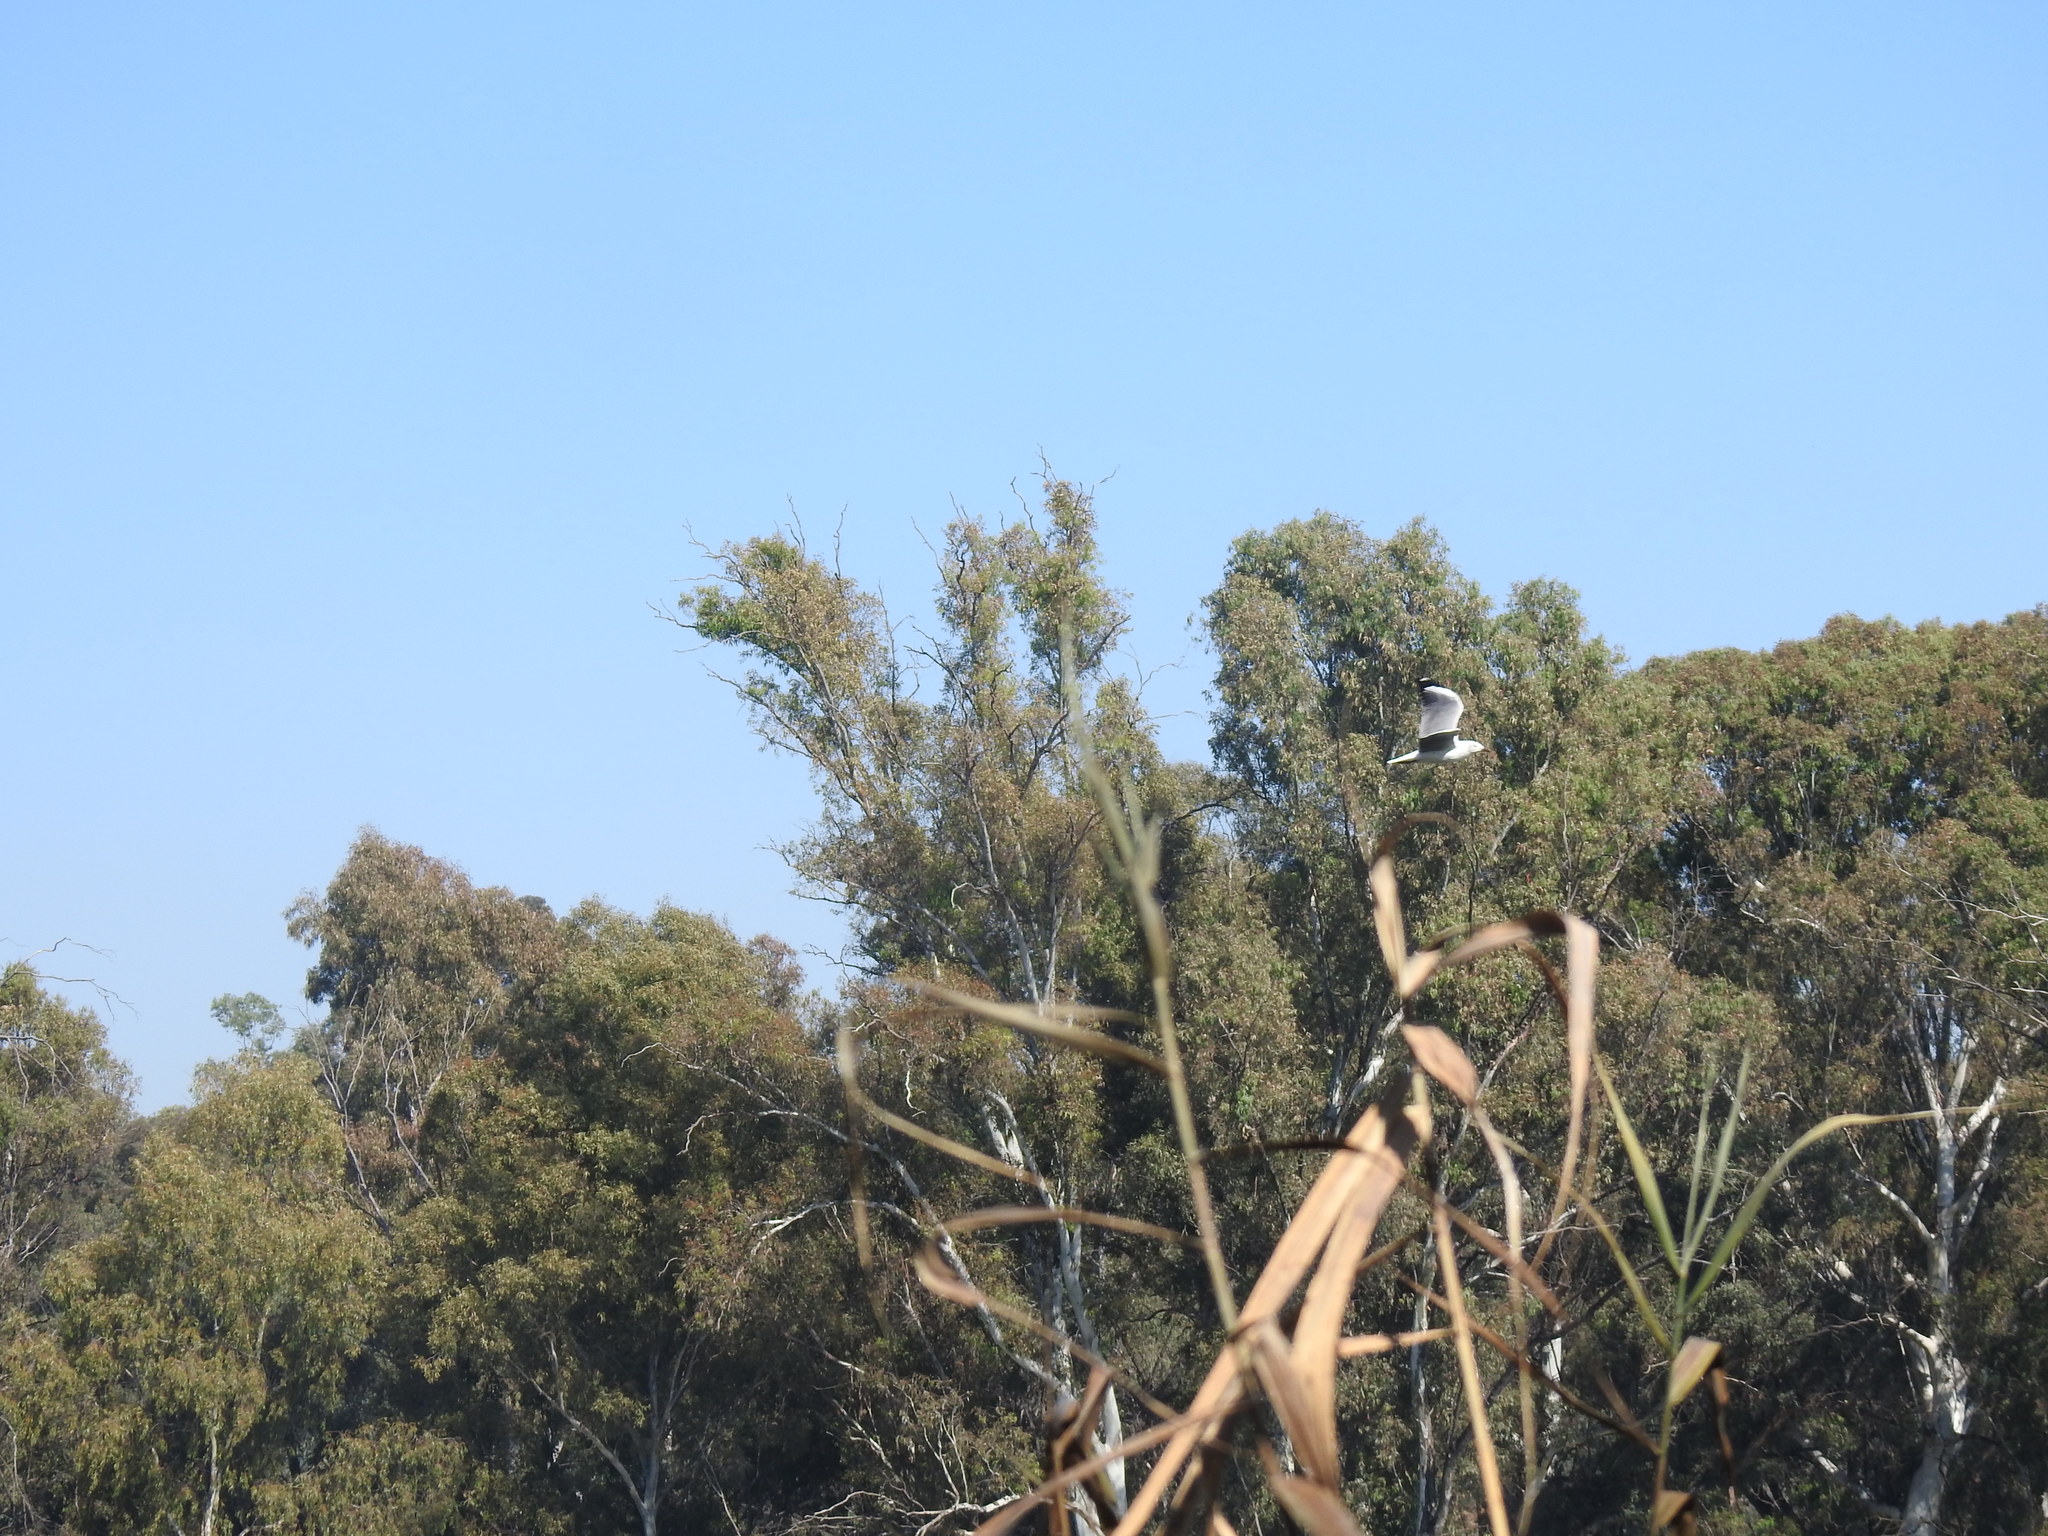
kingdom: Animalia
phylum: Chordata
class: Aves
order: Charadriiformes
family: Laridae
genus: Chroicocephalus
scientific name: Chroicocephalus cirrocephalus
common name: Grey-headed gull
